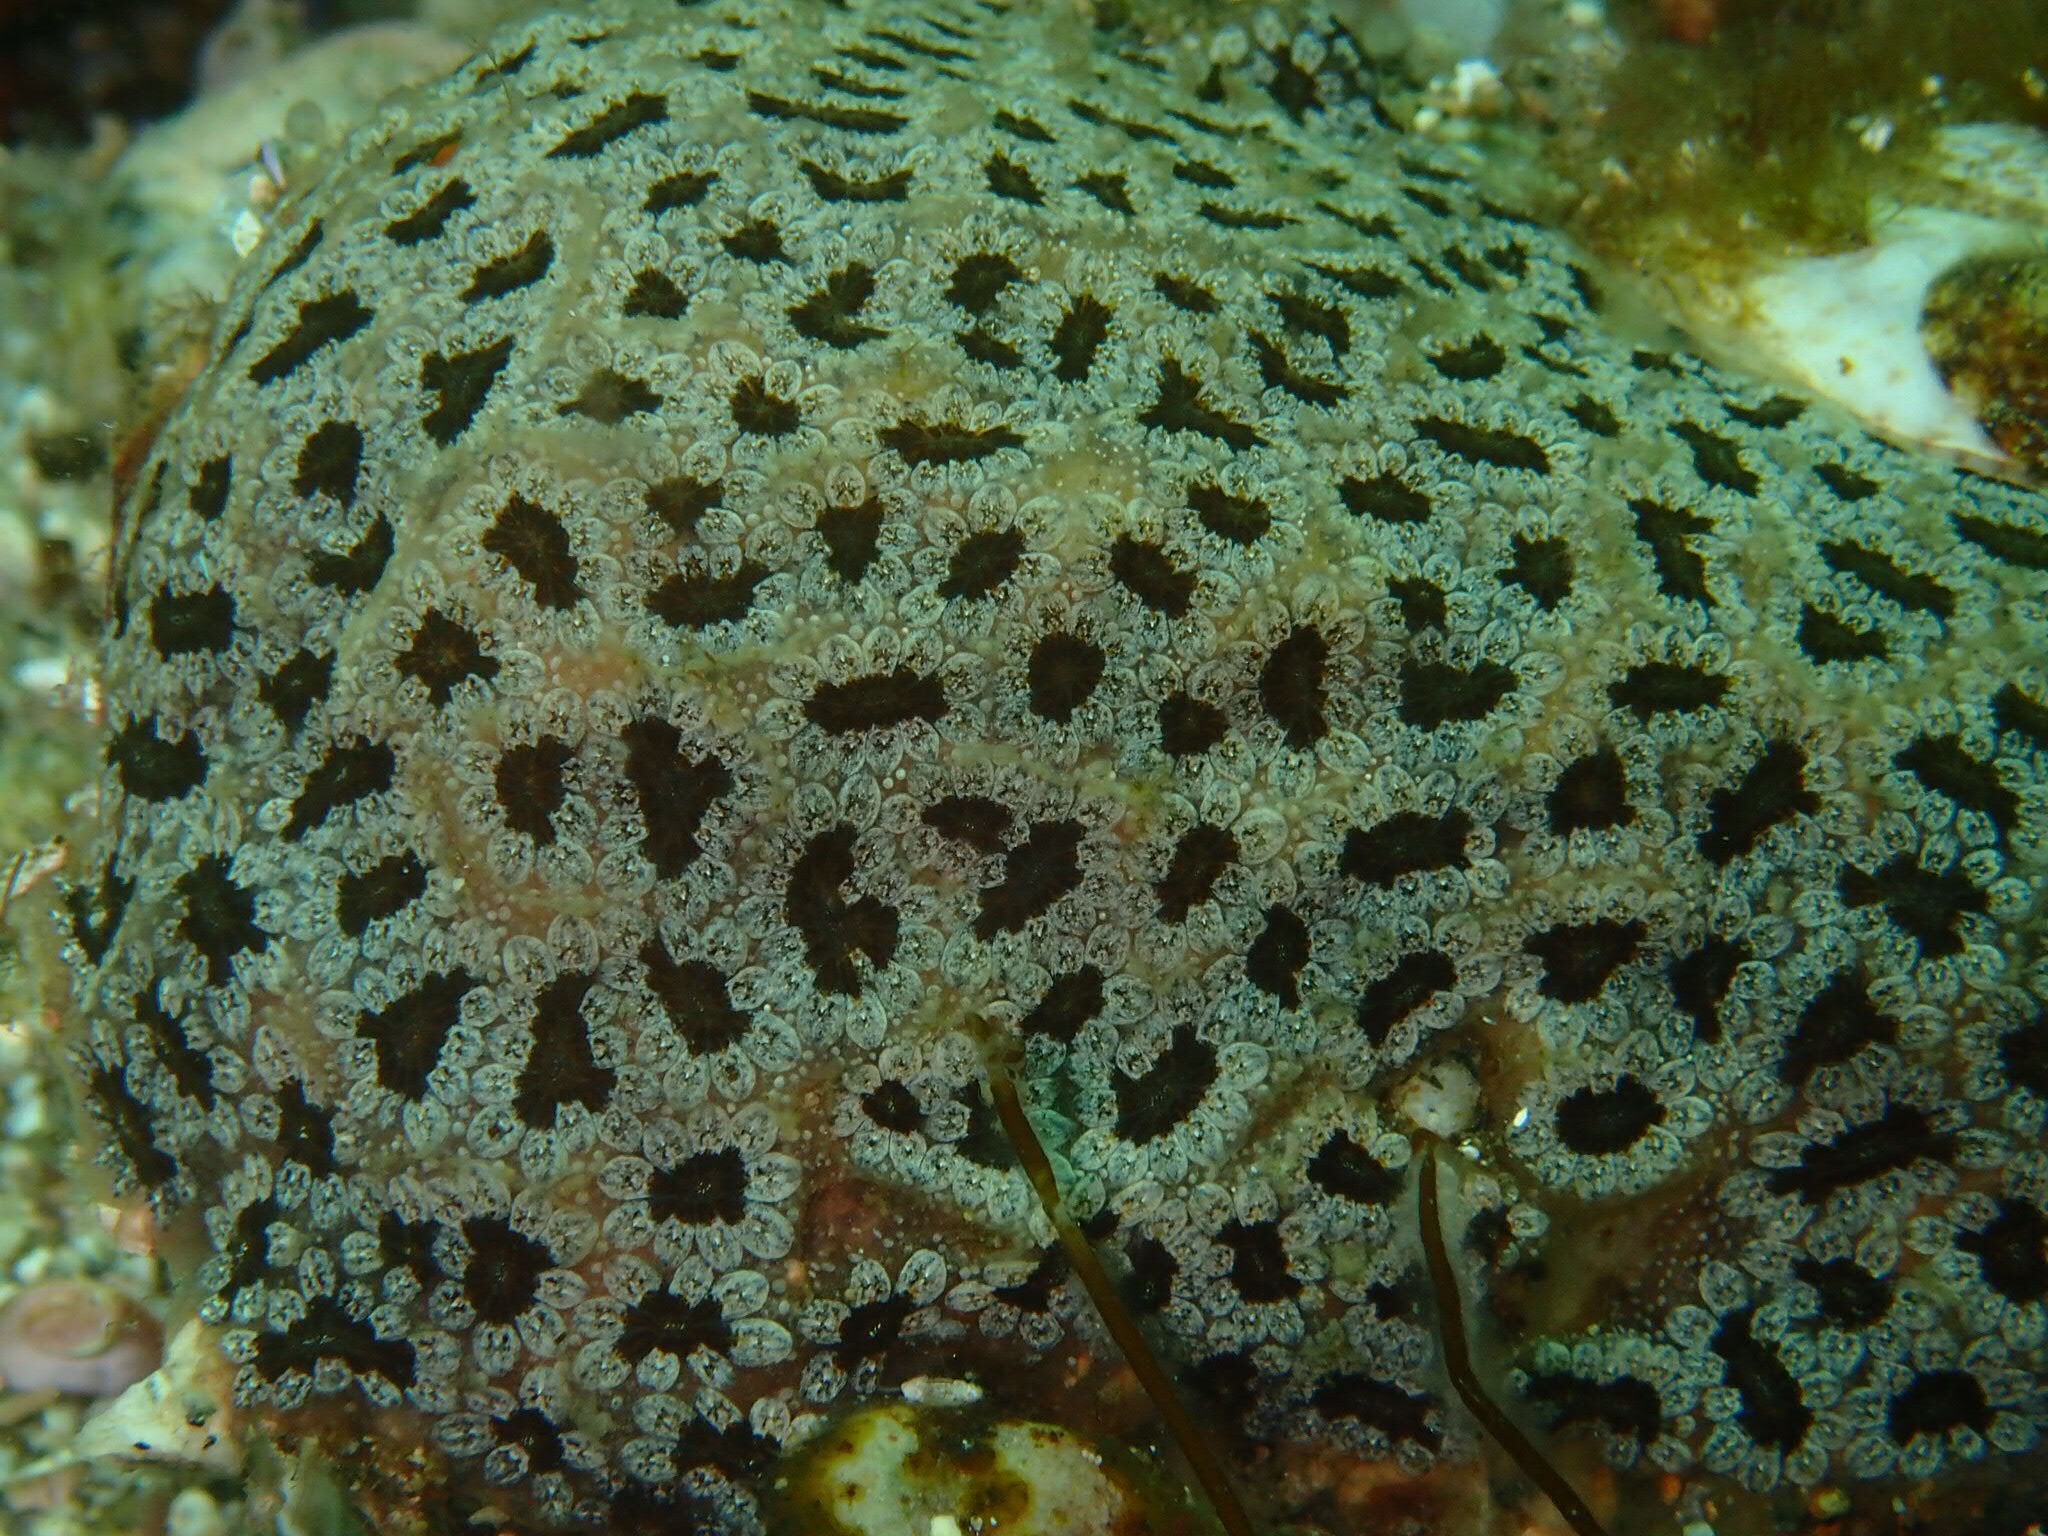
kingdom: Animalia
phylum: Chordata
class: Ascidiacea
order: Stolidobranchia
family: Styelidae
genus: Botryllus
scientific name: Botryllus schlosseri
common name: Golden star tunicate
